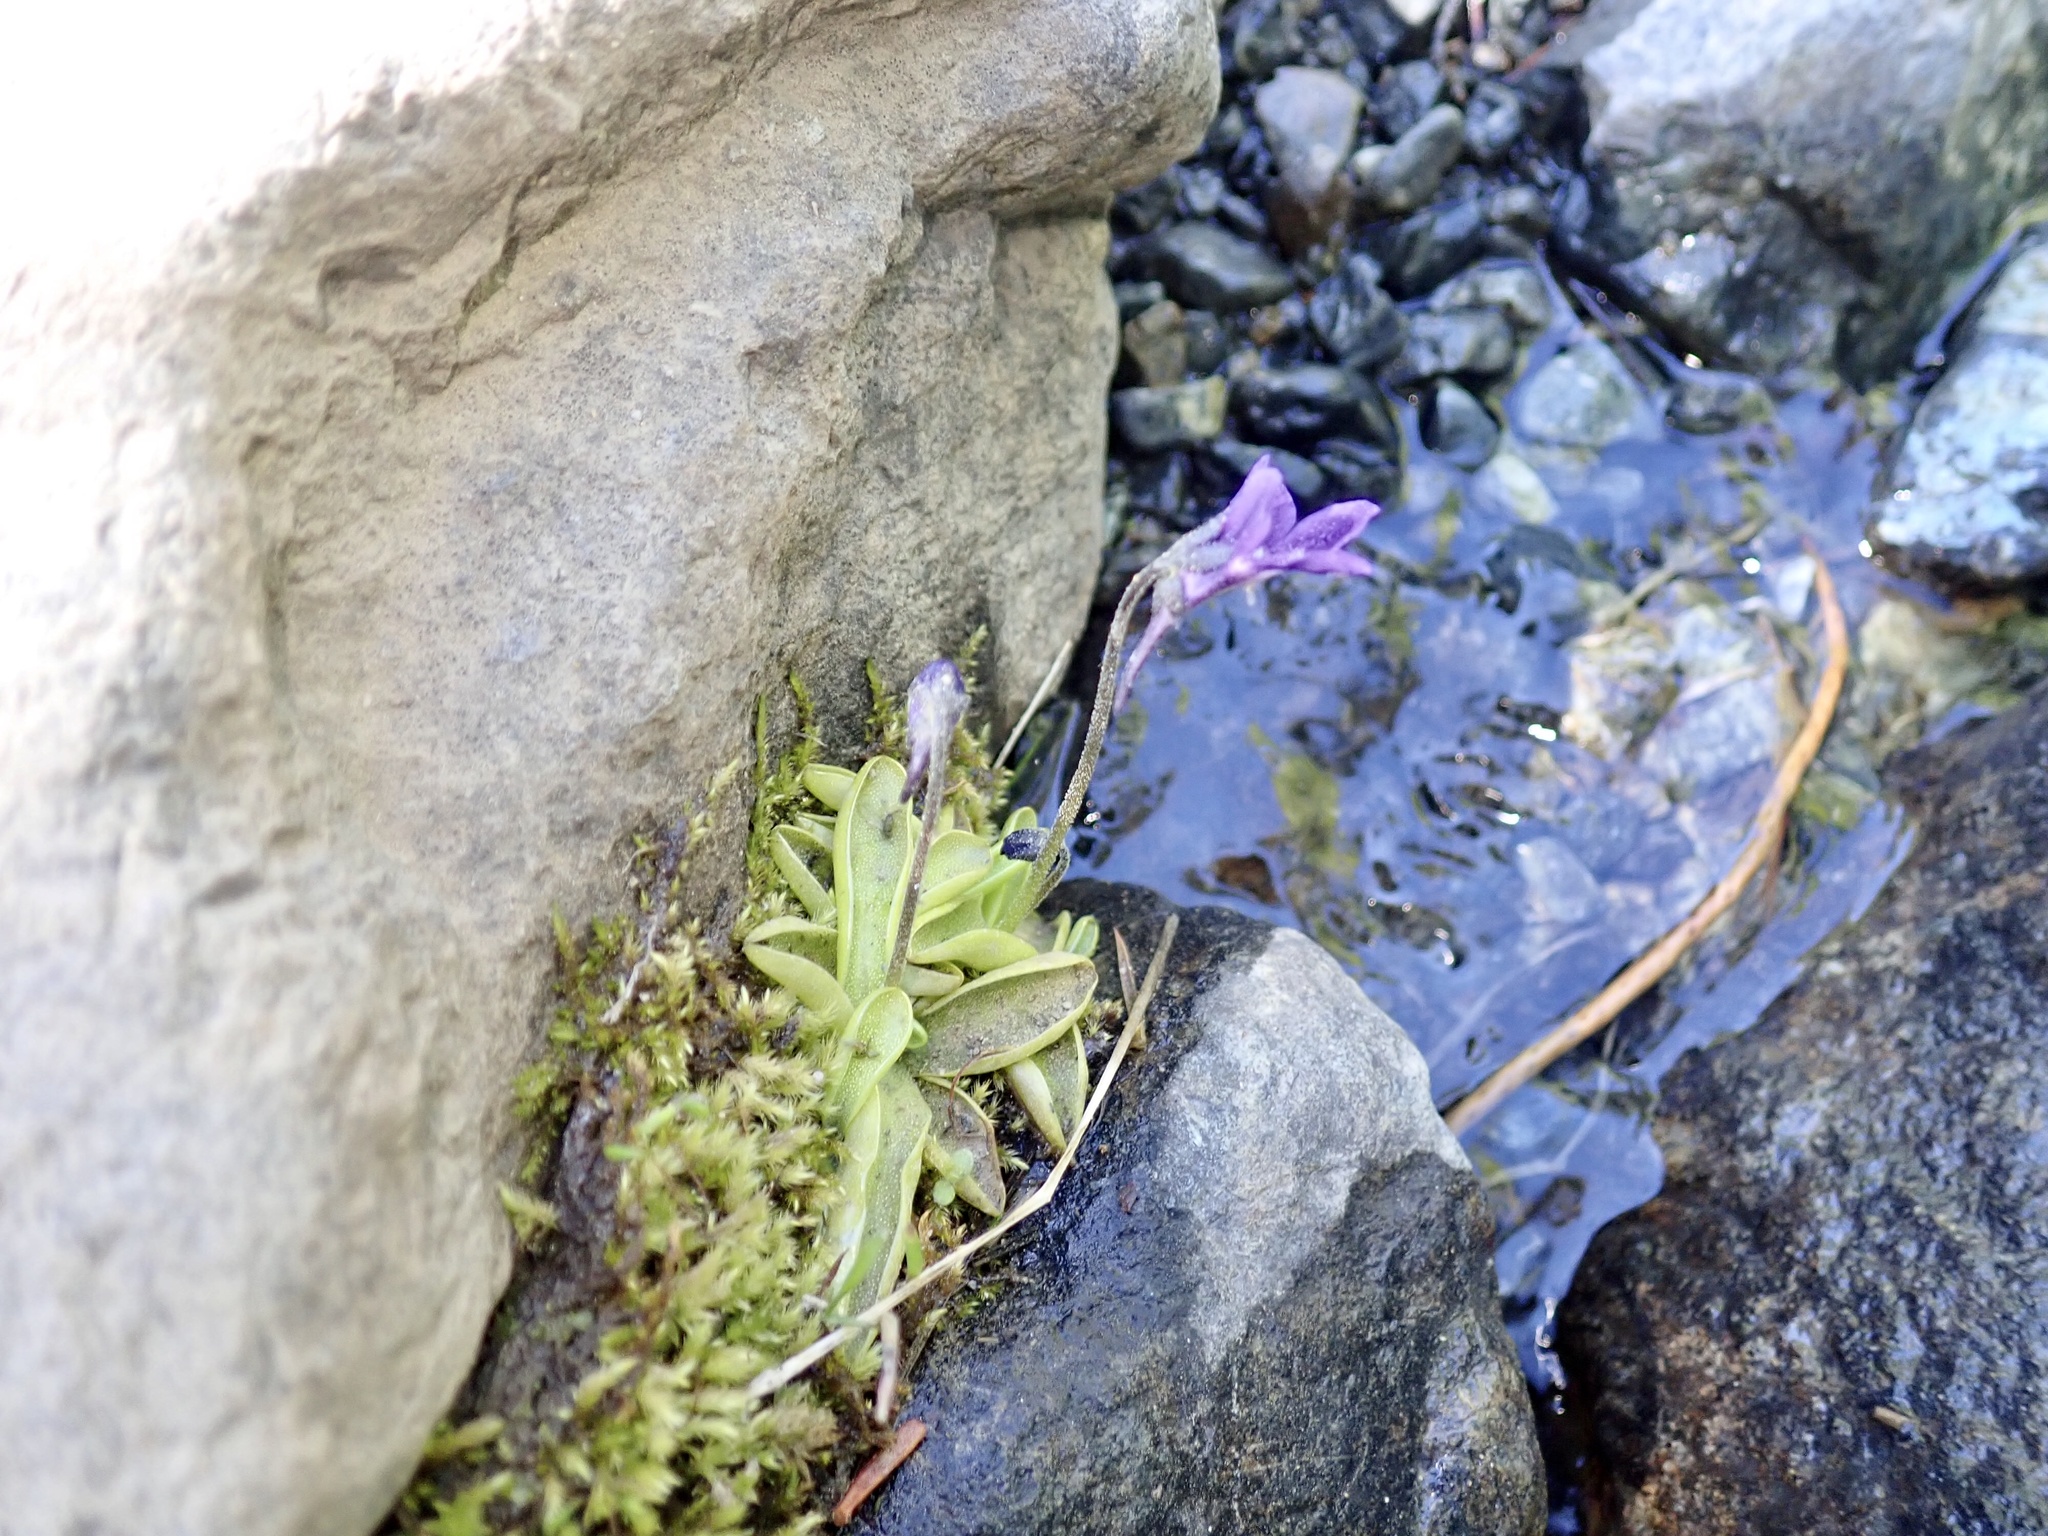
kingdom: Plantae
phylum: Tracheophyta
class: Magnoliopsida
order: Lamiales
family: Lentibulariaceae
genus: Pinguicula
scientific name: Pinguicula macroceras
